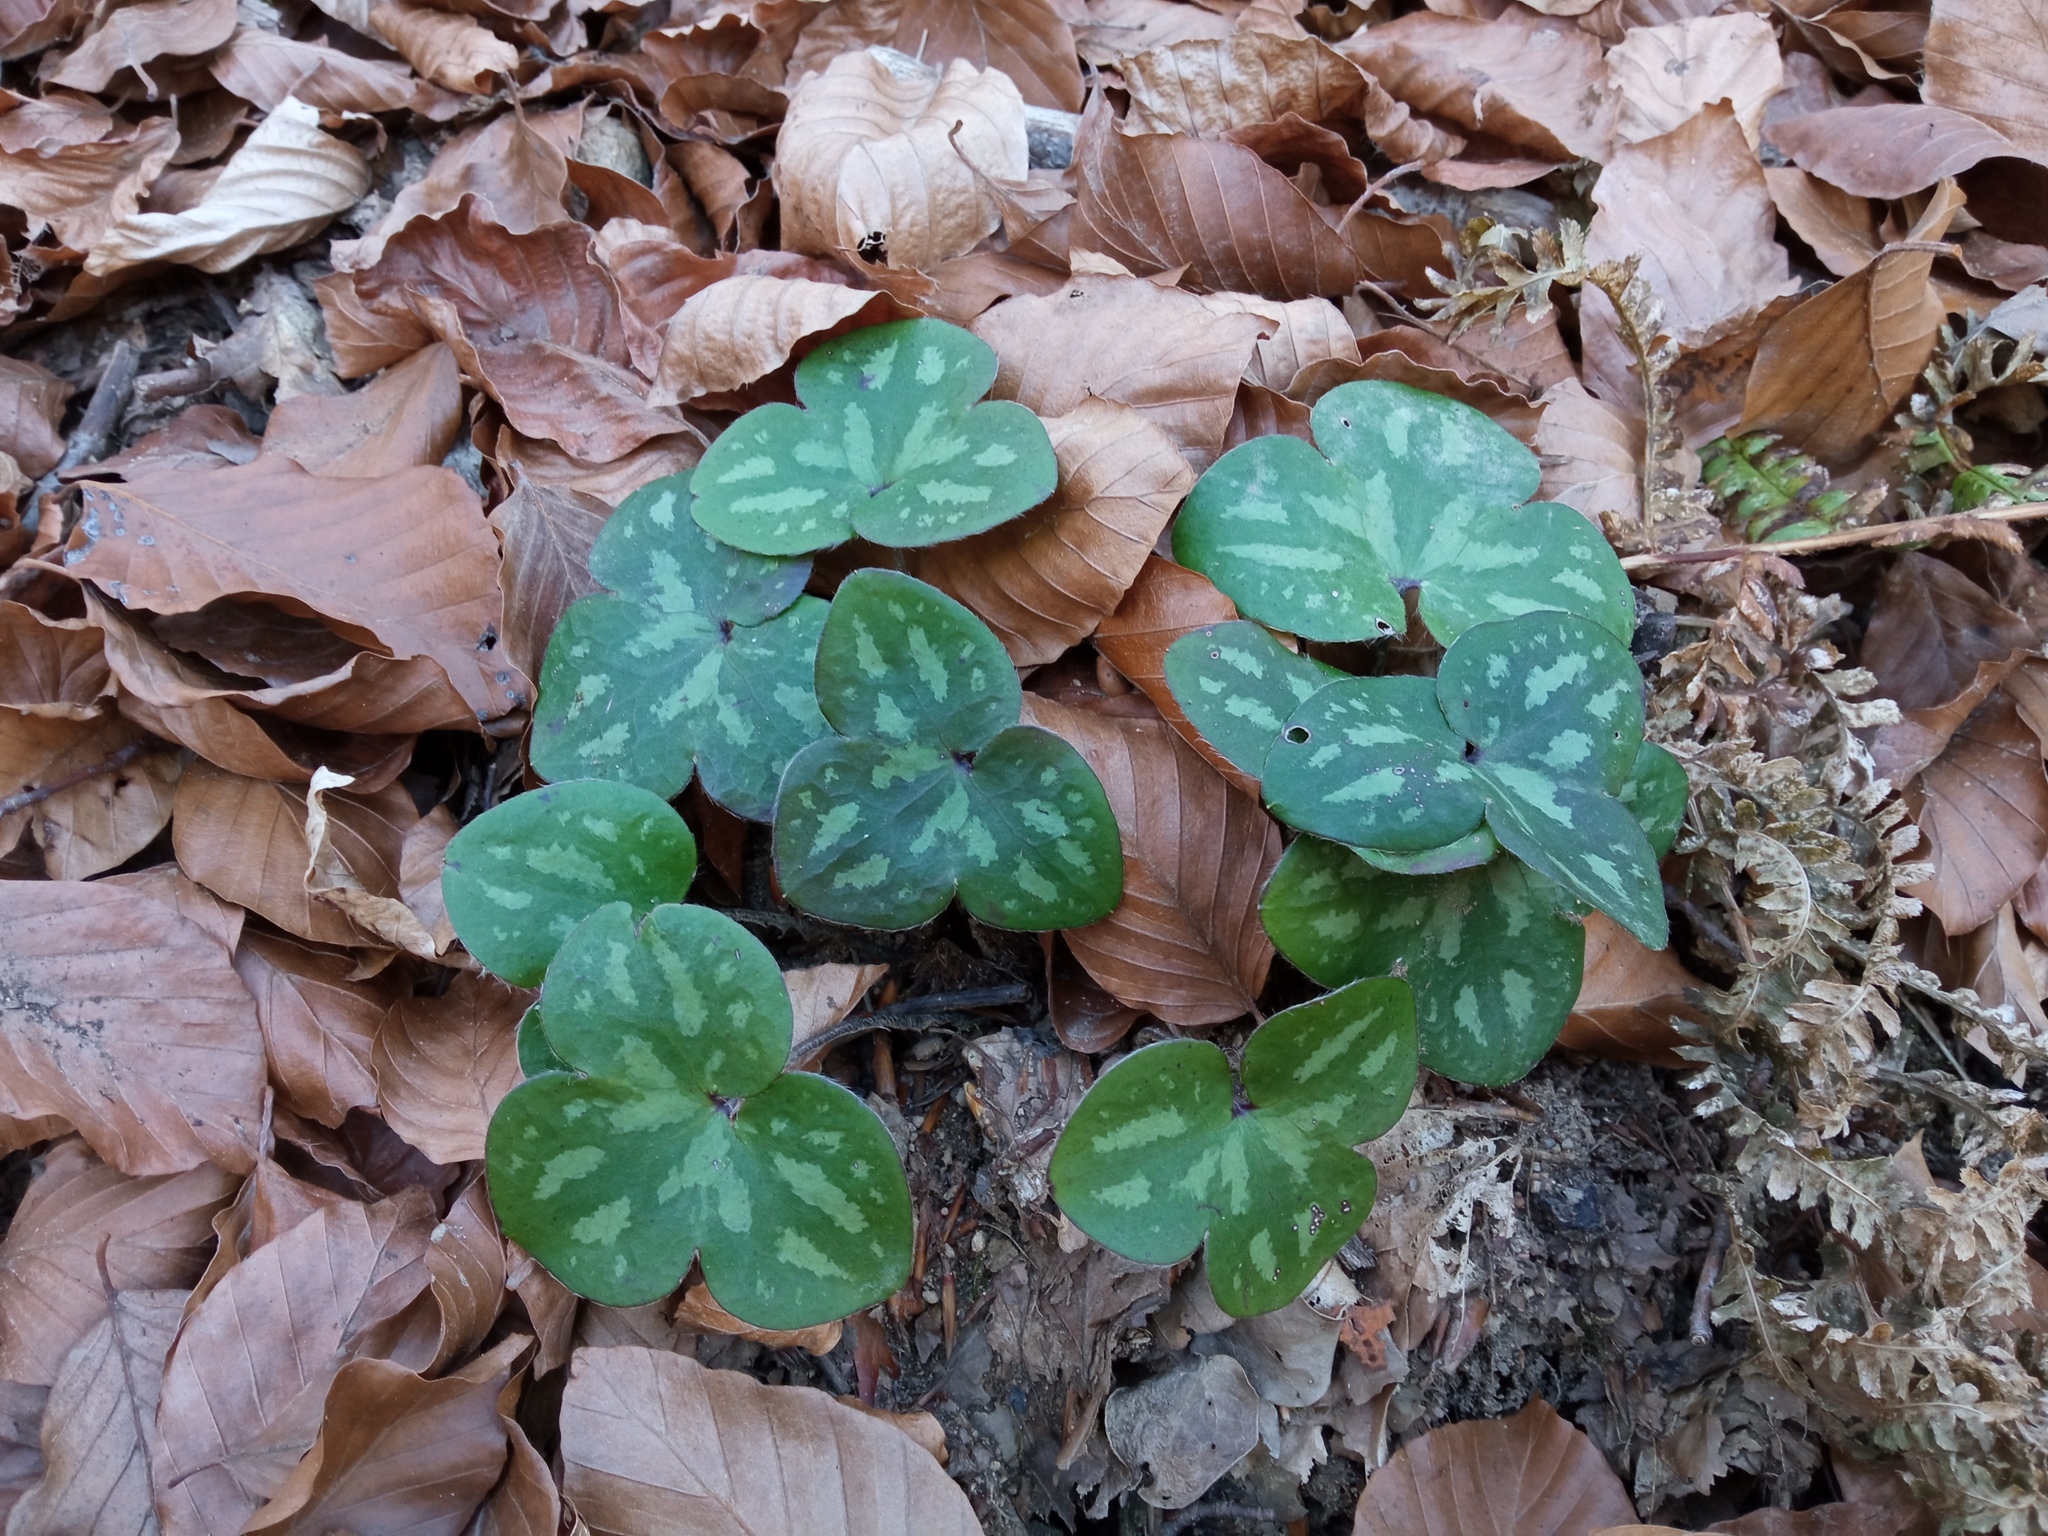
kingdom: Plantae
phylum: Tracheophyta
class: Magnoliopsida
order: Ranunculales
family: Ranunculaceae
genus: Hepatica
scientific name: Hepatica nobilis
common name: Liverleaf
